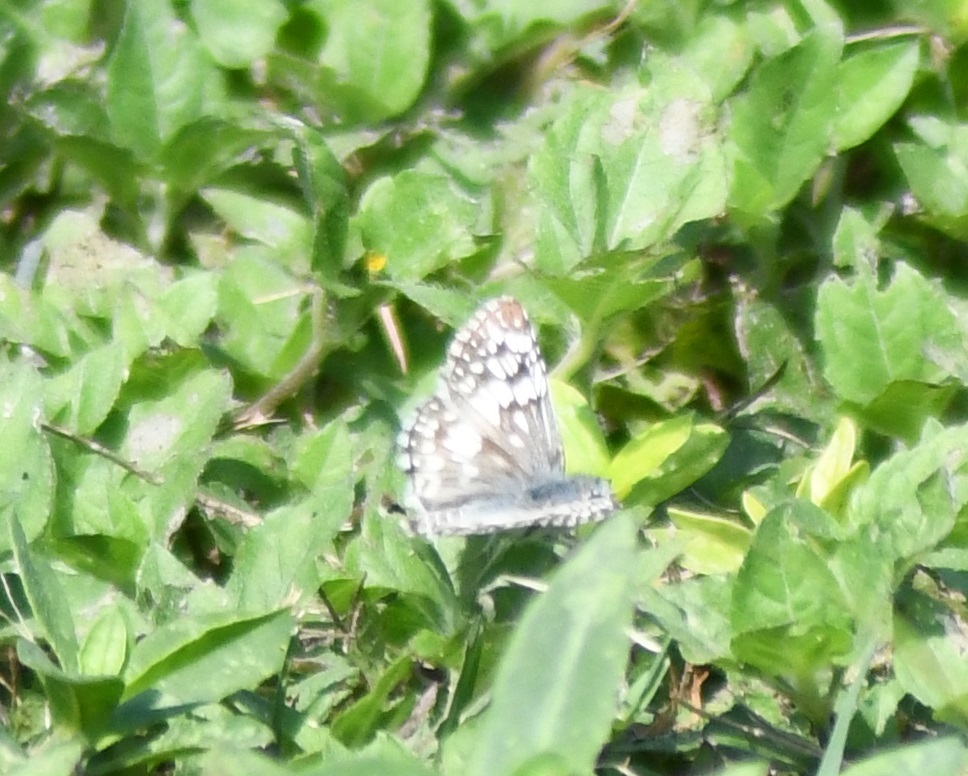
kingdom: Animalia
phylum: Arthropoda
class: Insecta
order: Lepidoptera
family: Hesperiidae
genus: Pyrgus
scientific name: Pyrgus oileus
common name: Tropical checkered-skipper
